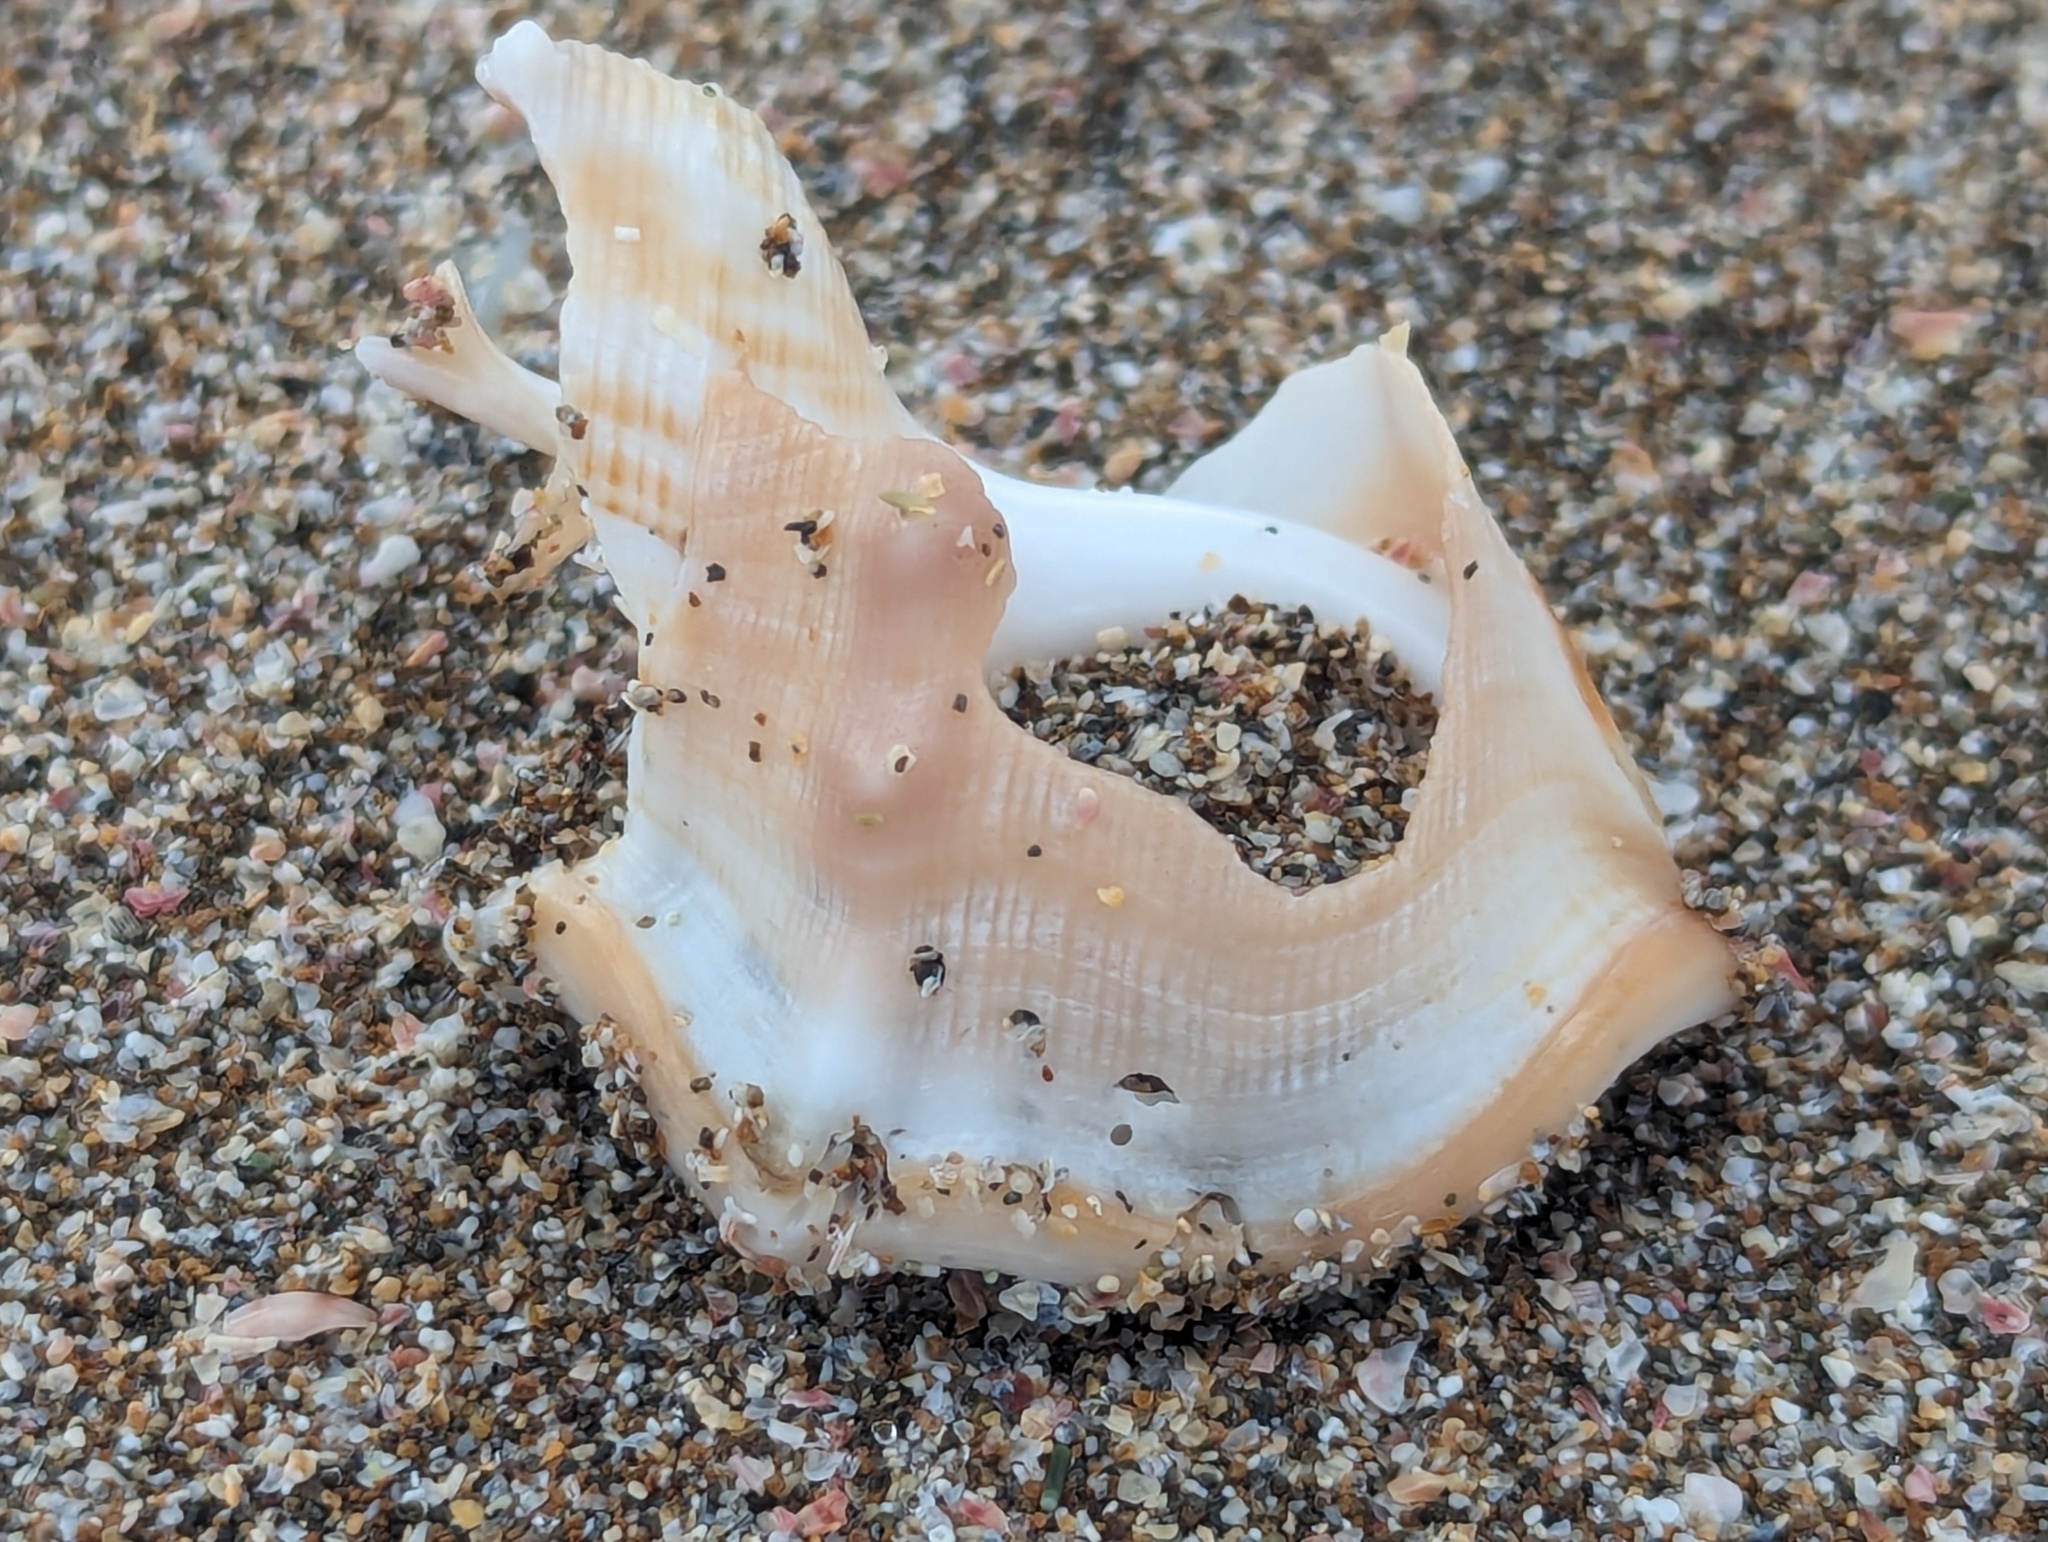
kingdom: Animalia
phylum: Mollusca
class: Gastropoda
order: Littorinimorpha
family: Struthiolariidae
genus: Struthiolaria
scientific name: Struthiolaria papulosa
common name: Large ostrich foot
